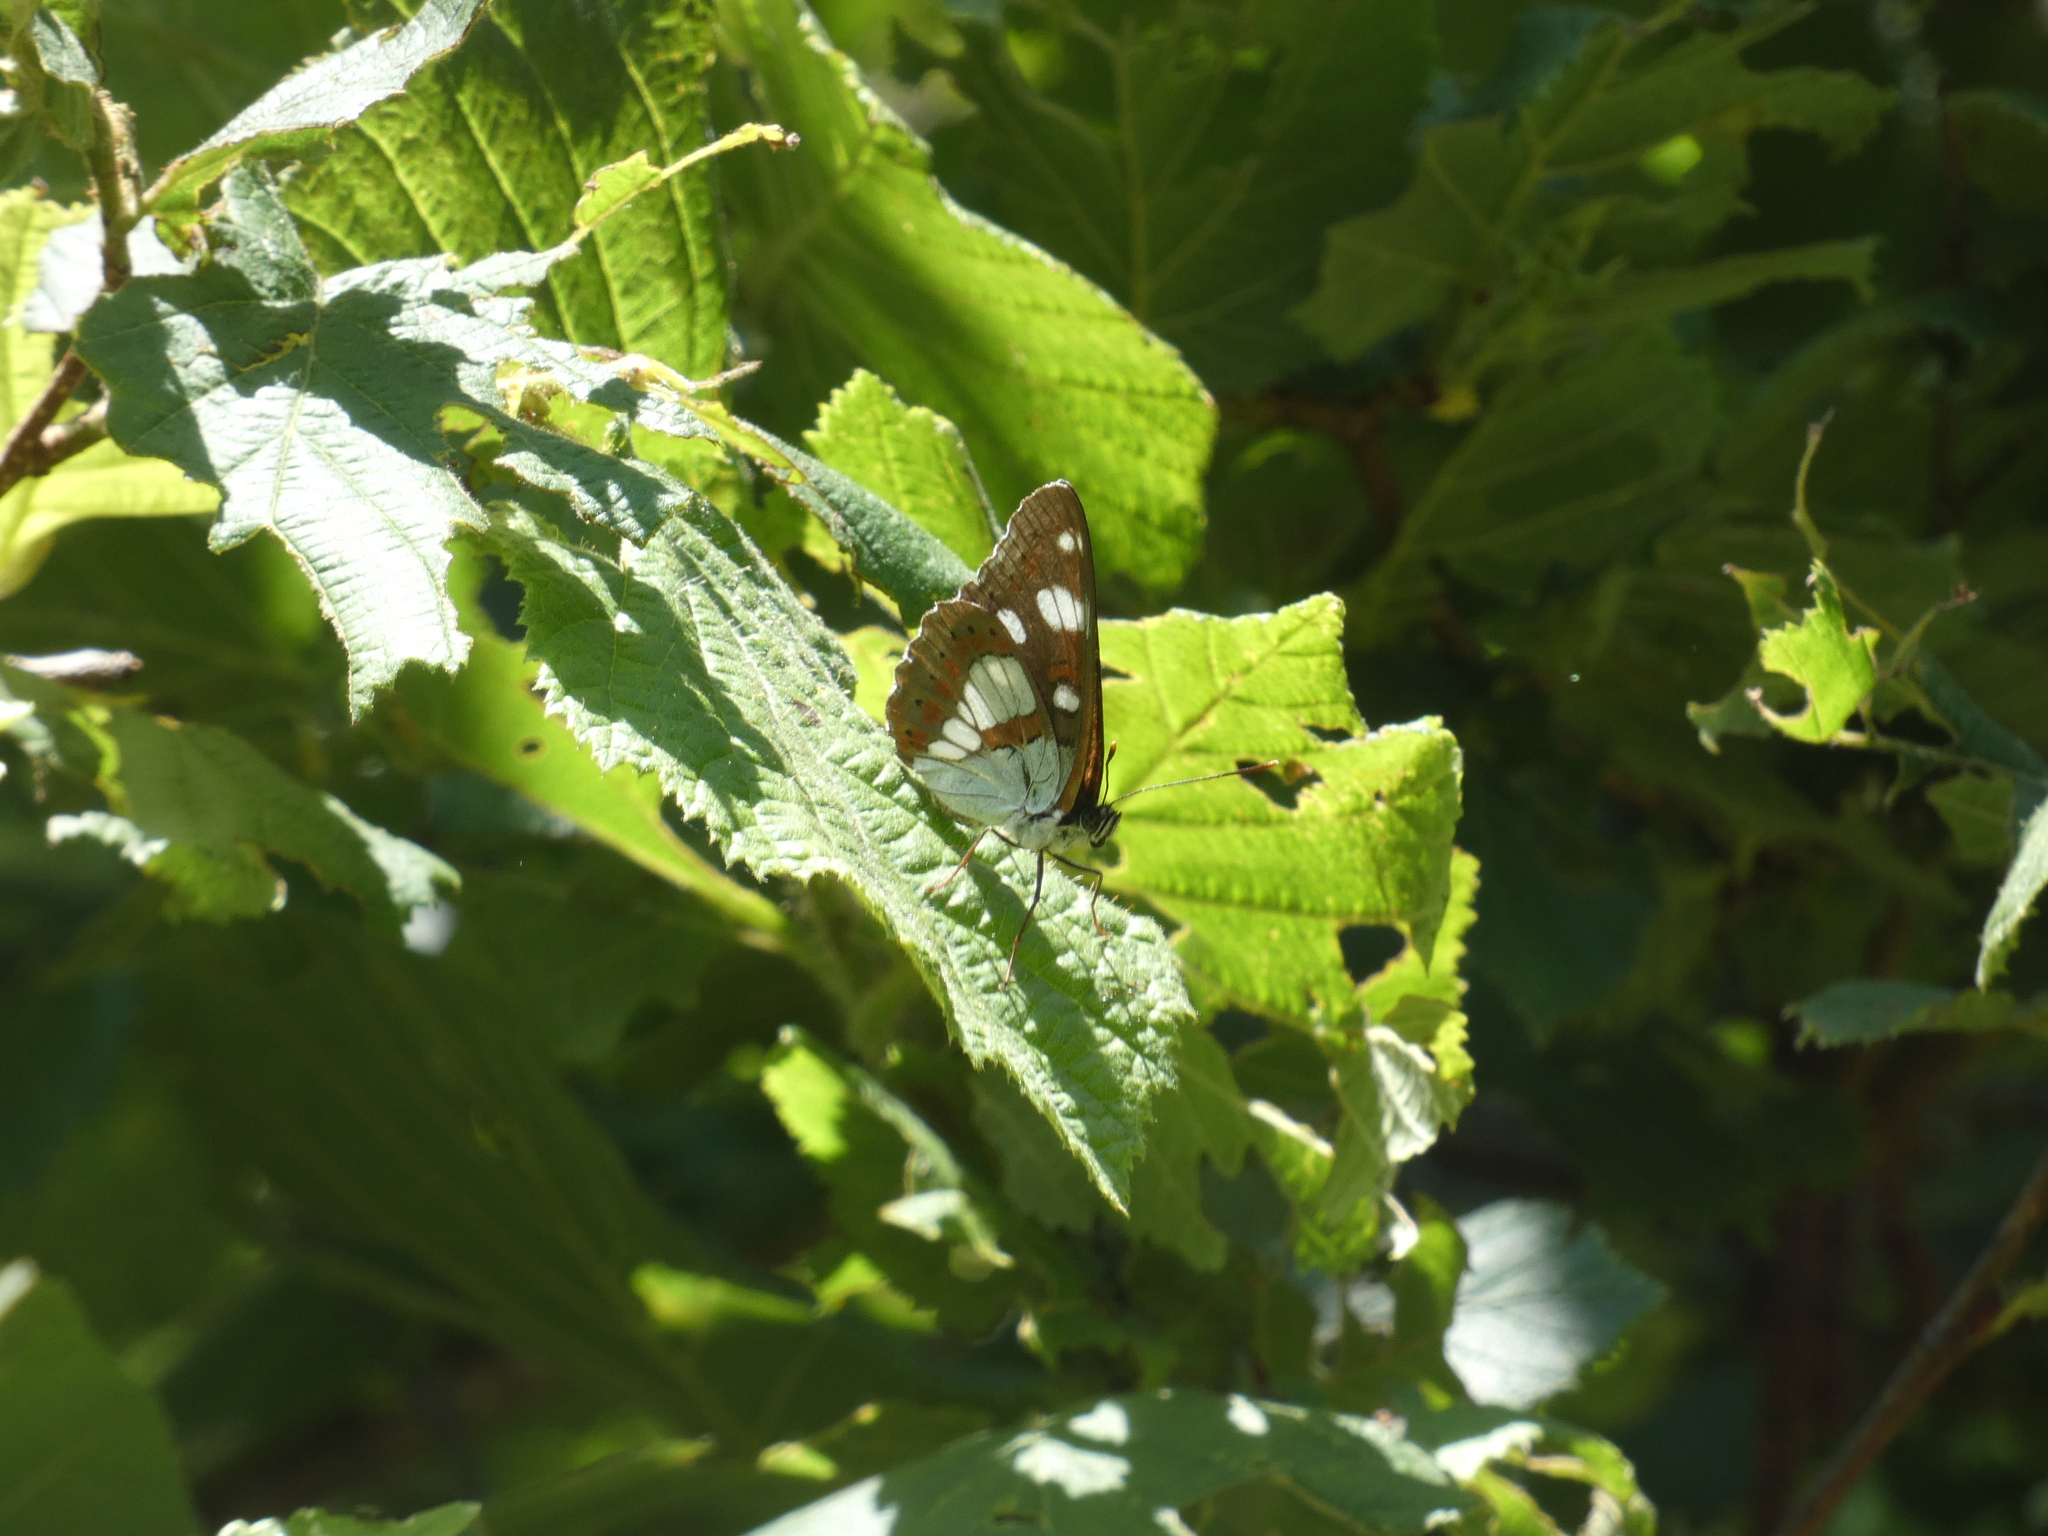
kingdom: Animalia
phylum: Arthropoda
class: Insecta
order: Lepidoptera
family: Nymphalidae
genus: Limenitis
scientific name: Limenitis reducta
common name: Southern white admiral
